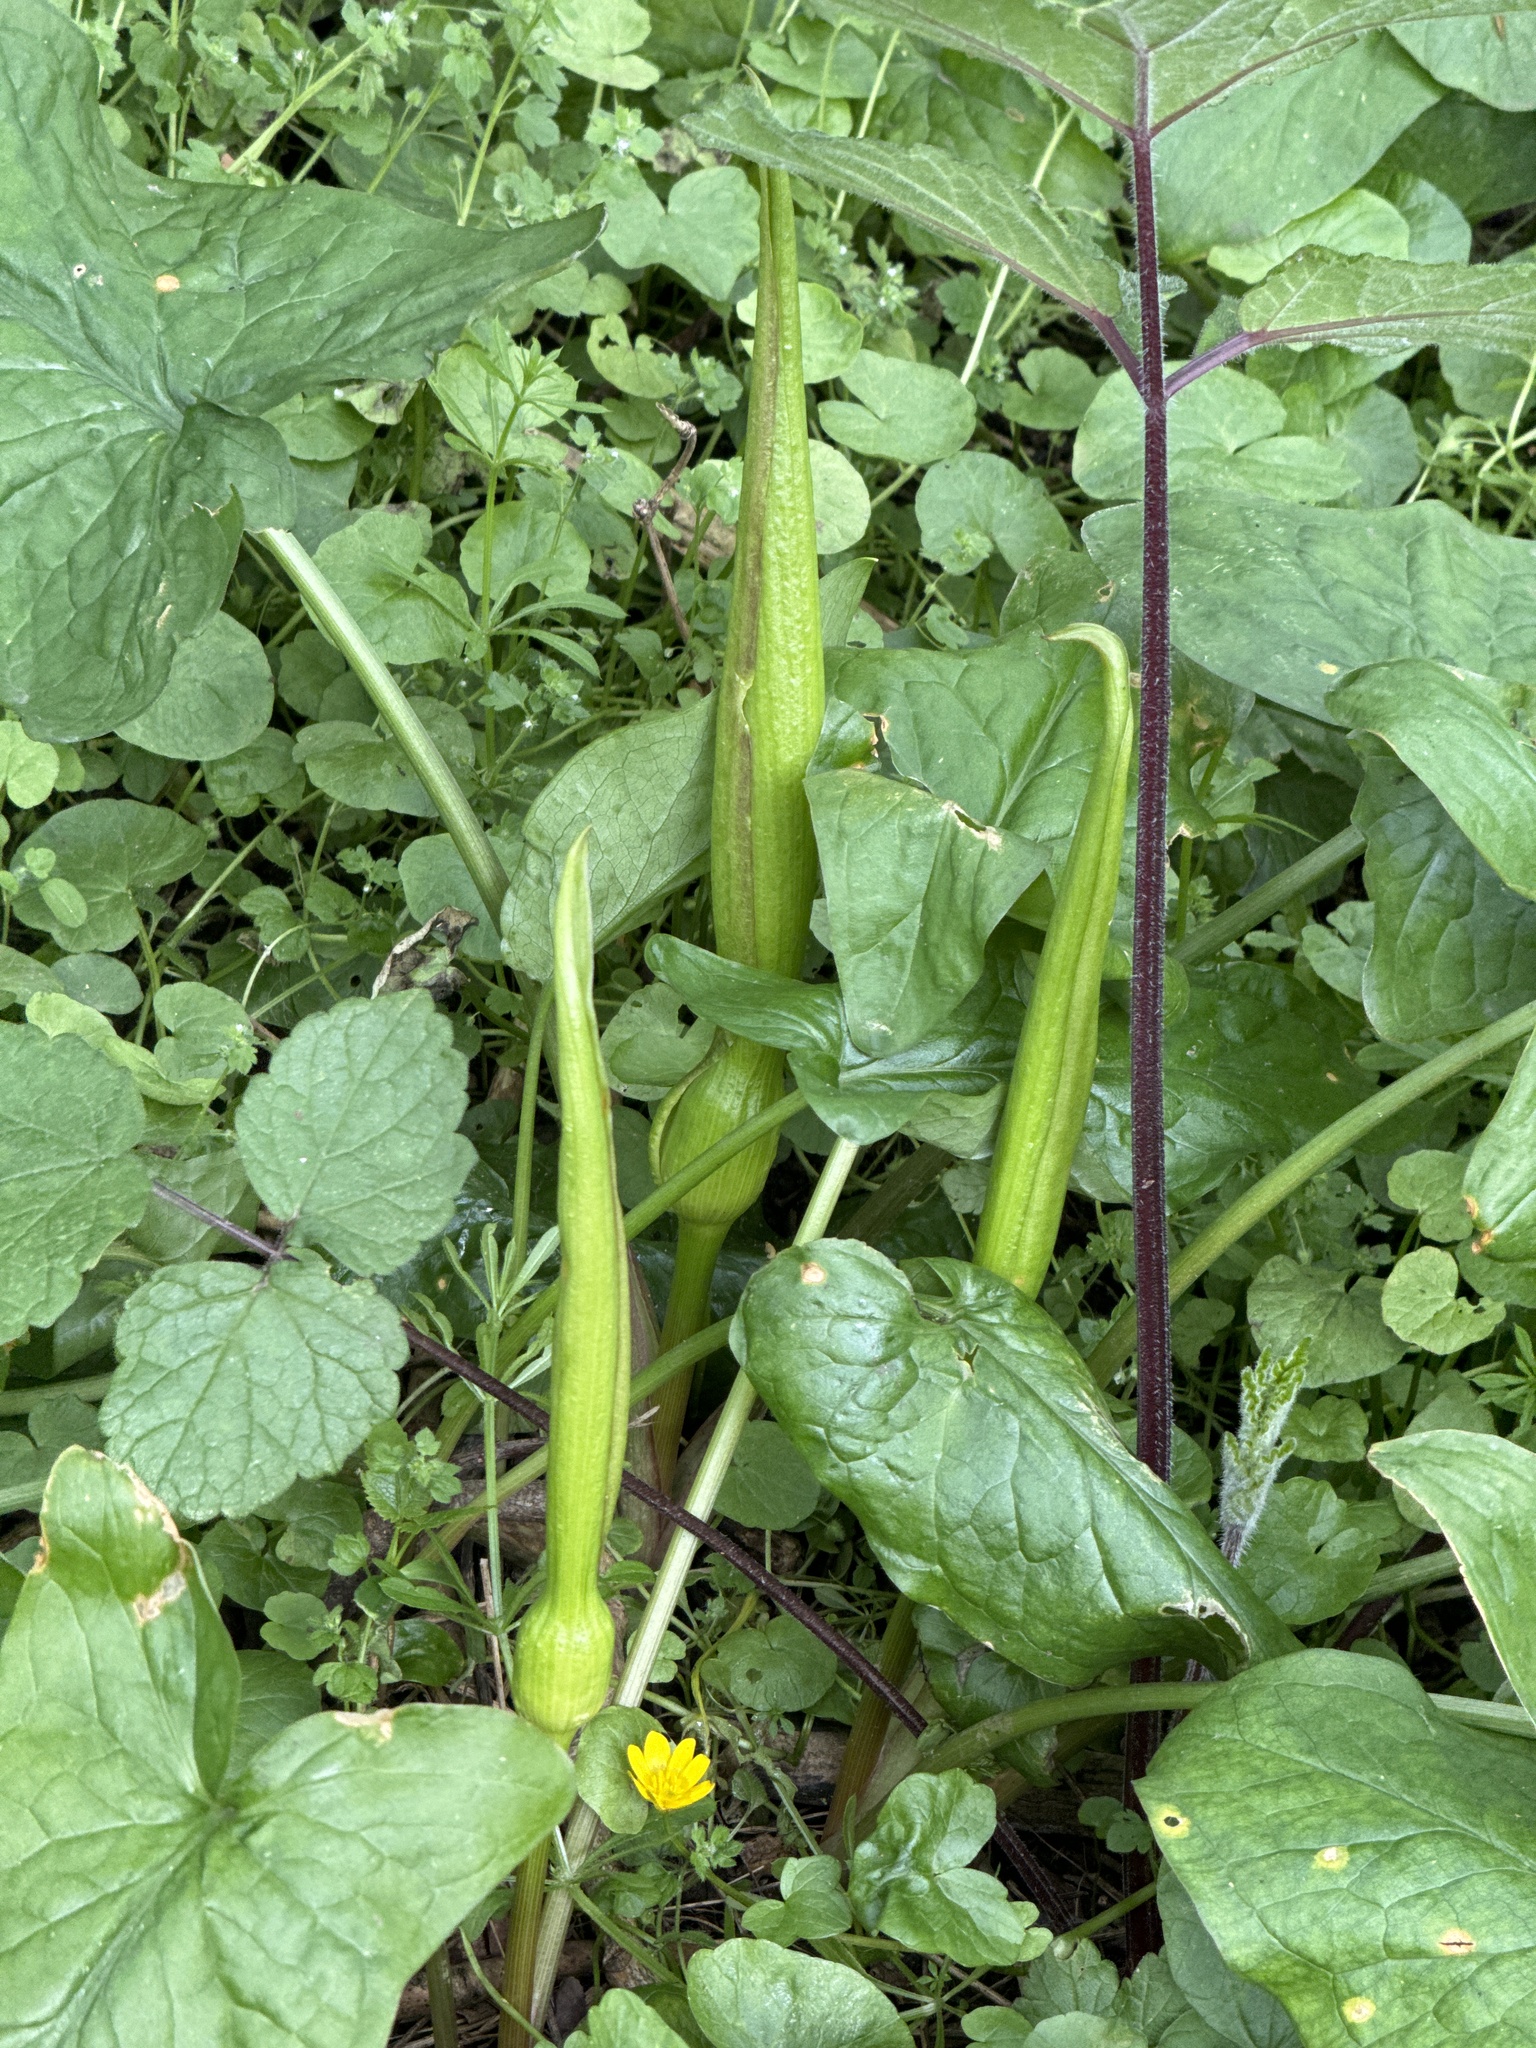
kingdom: Plantae
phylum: Tracheophyta
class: Liliopsida
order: Alismatales
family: Araceae
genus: Arum
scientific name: Arum maculatum
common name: Lords-and-ladies
